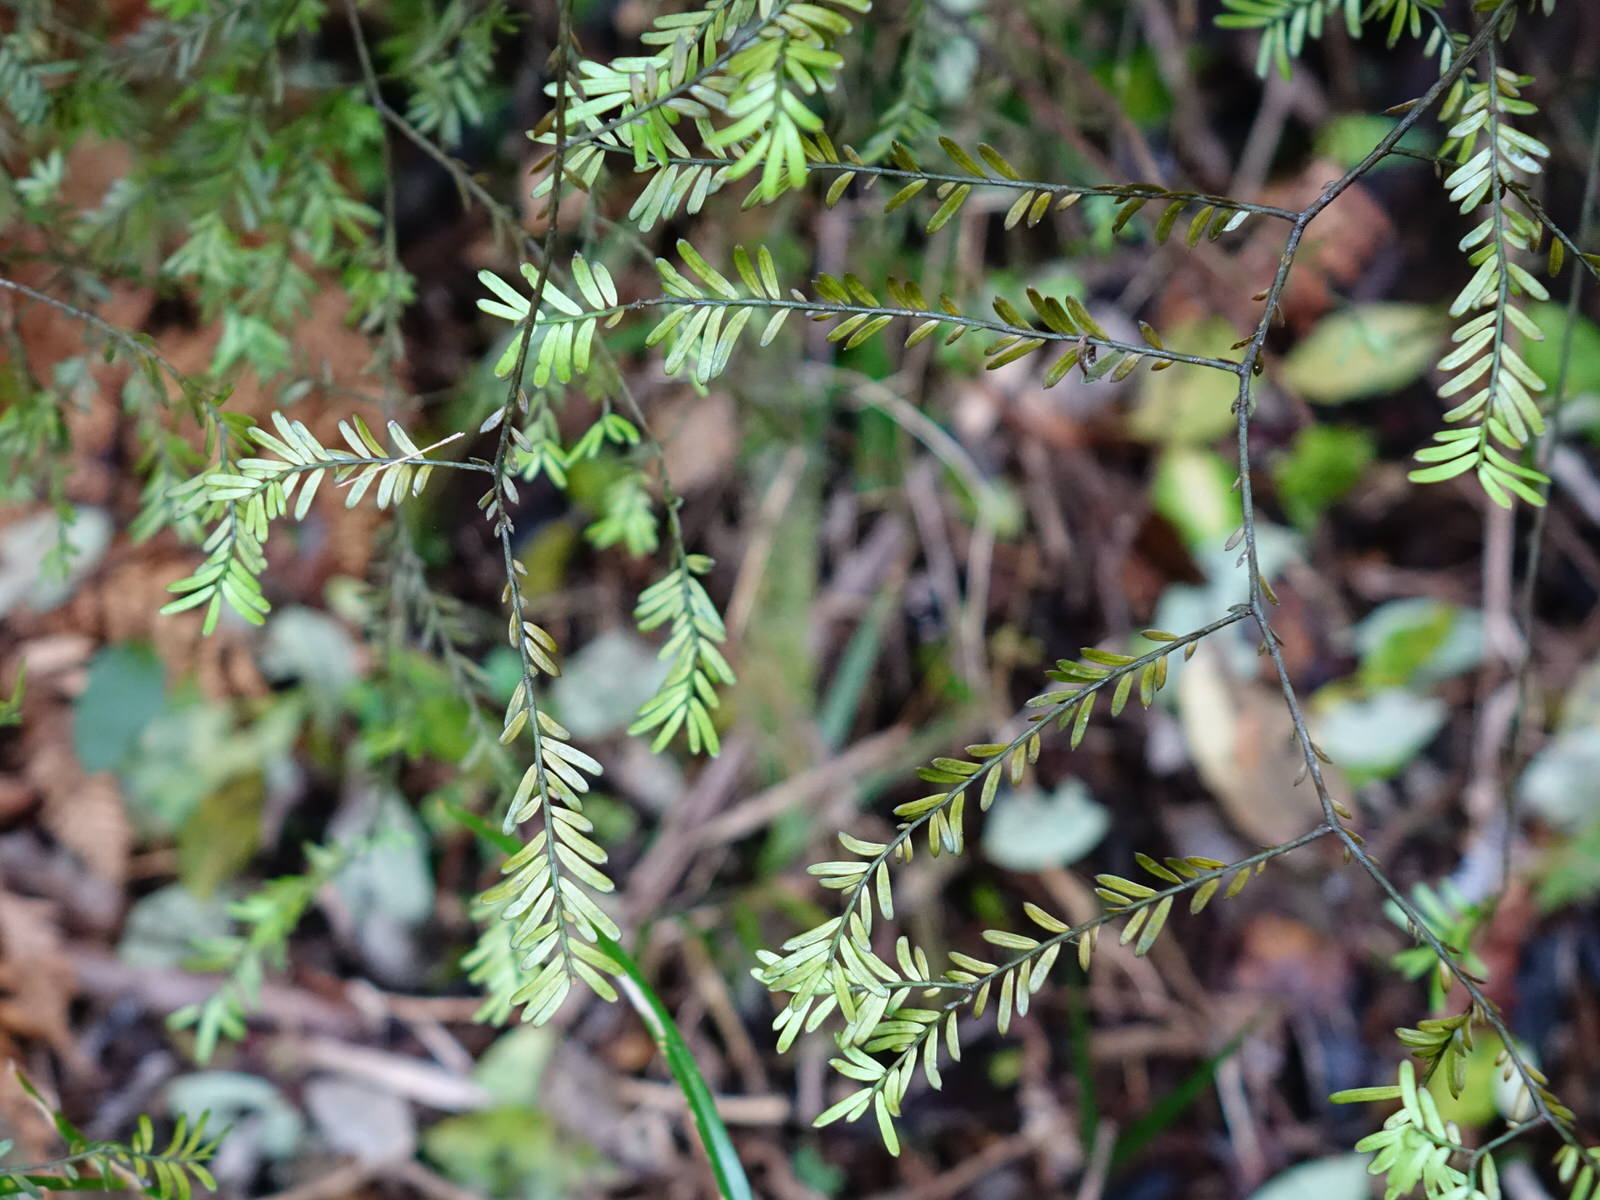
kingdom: Plantae
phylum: Tracheophyta
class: Pinopsida
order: Pinales
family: Podocarpaceae
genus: Prumnopitys
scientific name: Prumnopitys taxifolia
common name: Matai
